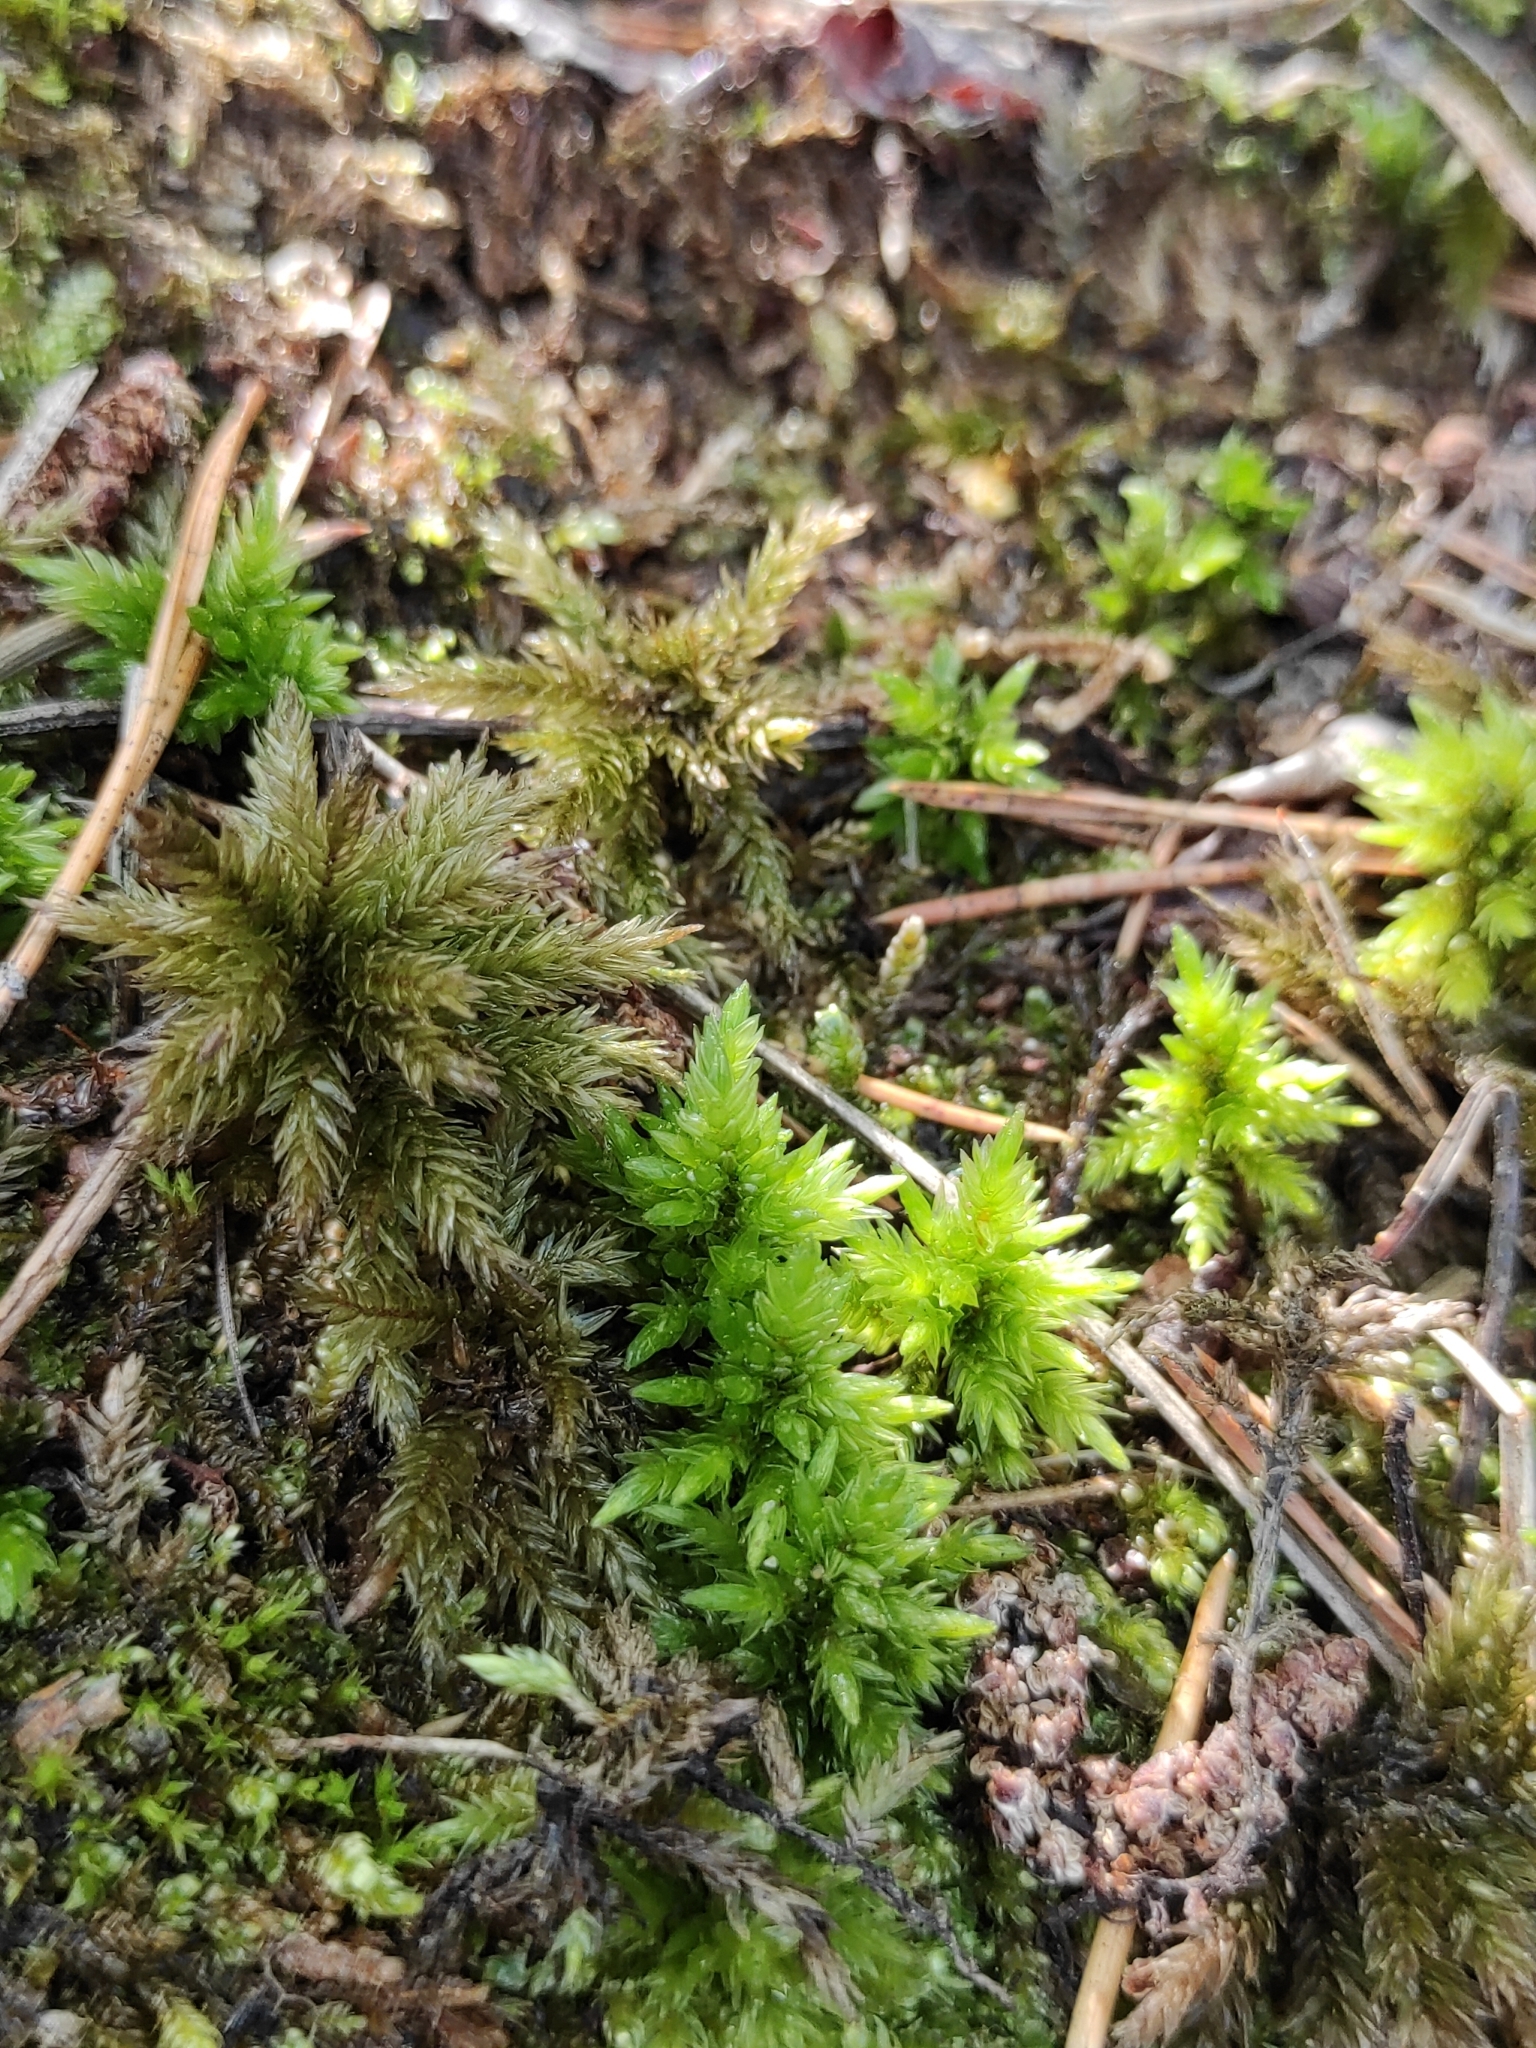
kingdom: Plantae
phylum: Bryophyta
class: Bryopsida
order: Hypnales
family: Climaciaceae
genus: Climacium
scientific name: Climacium dendroides
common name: Northern tree moss
